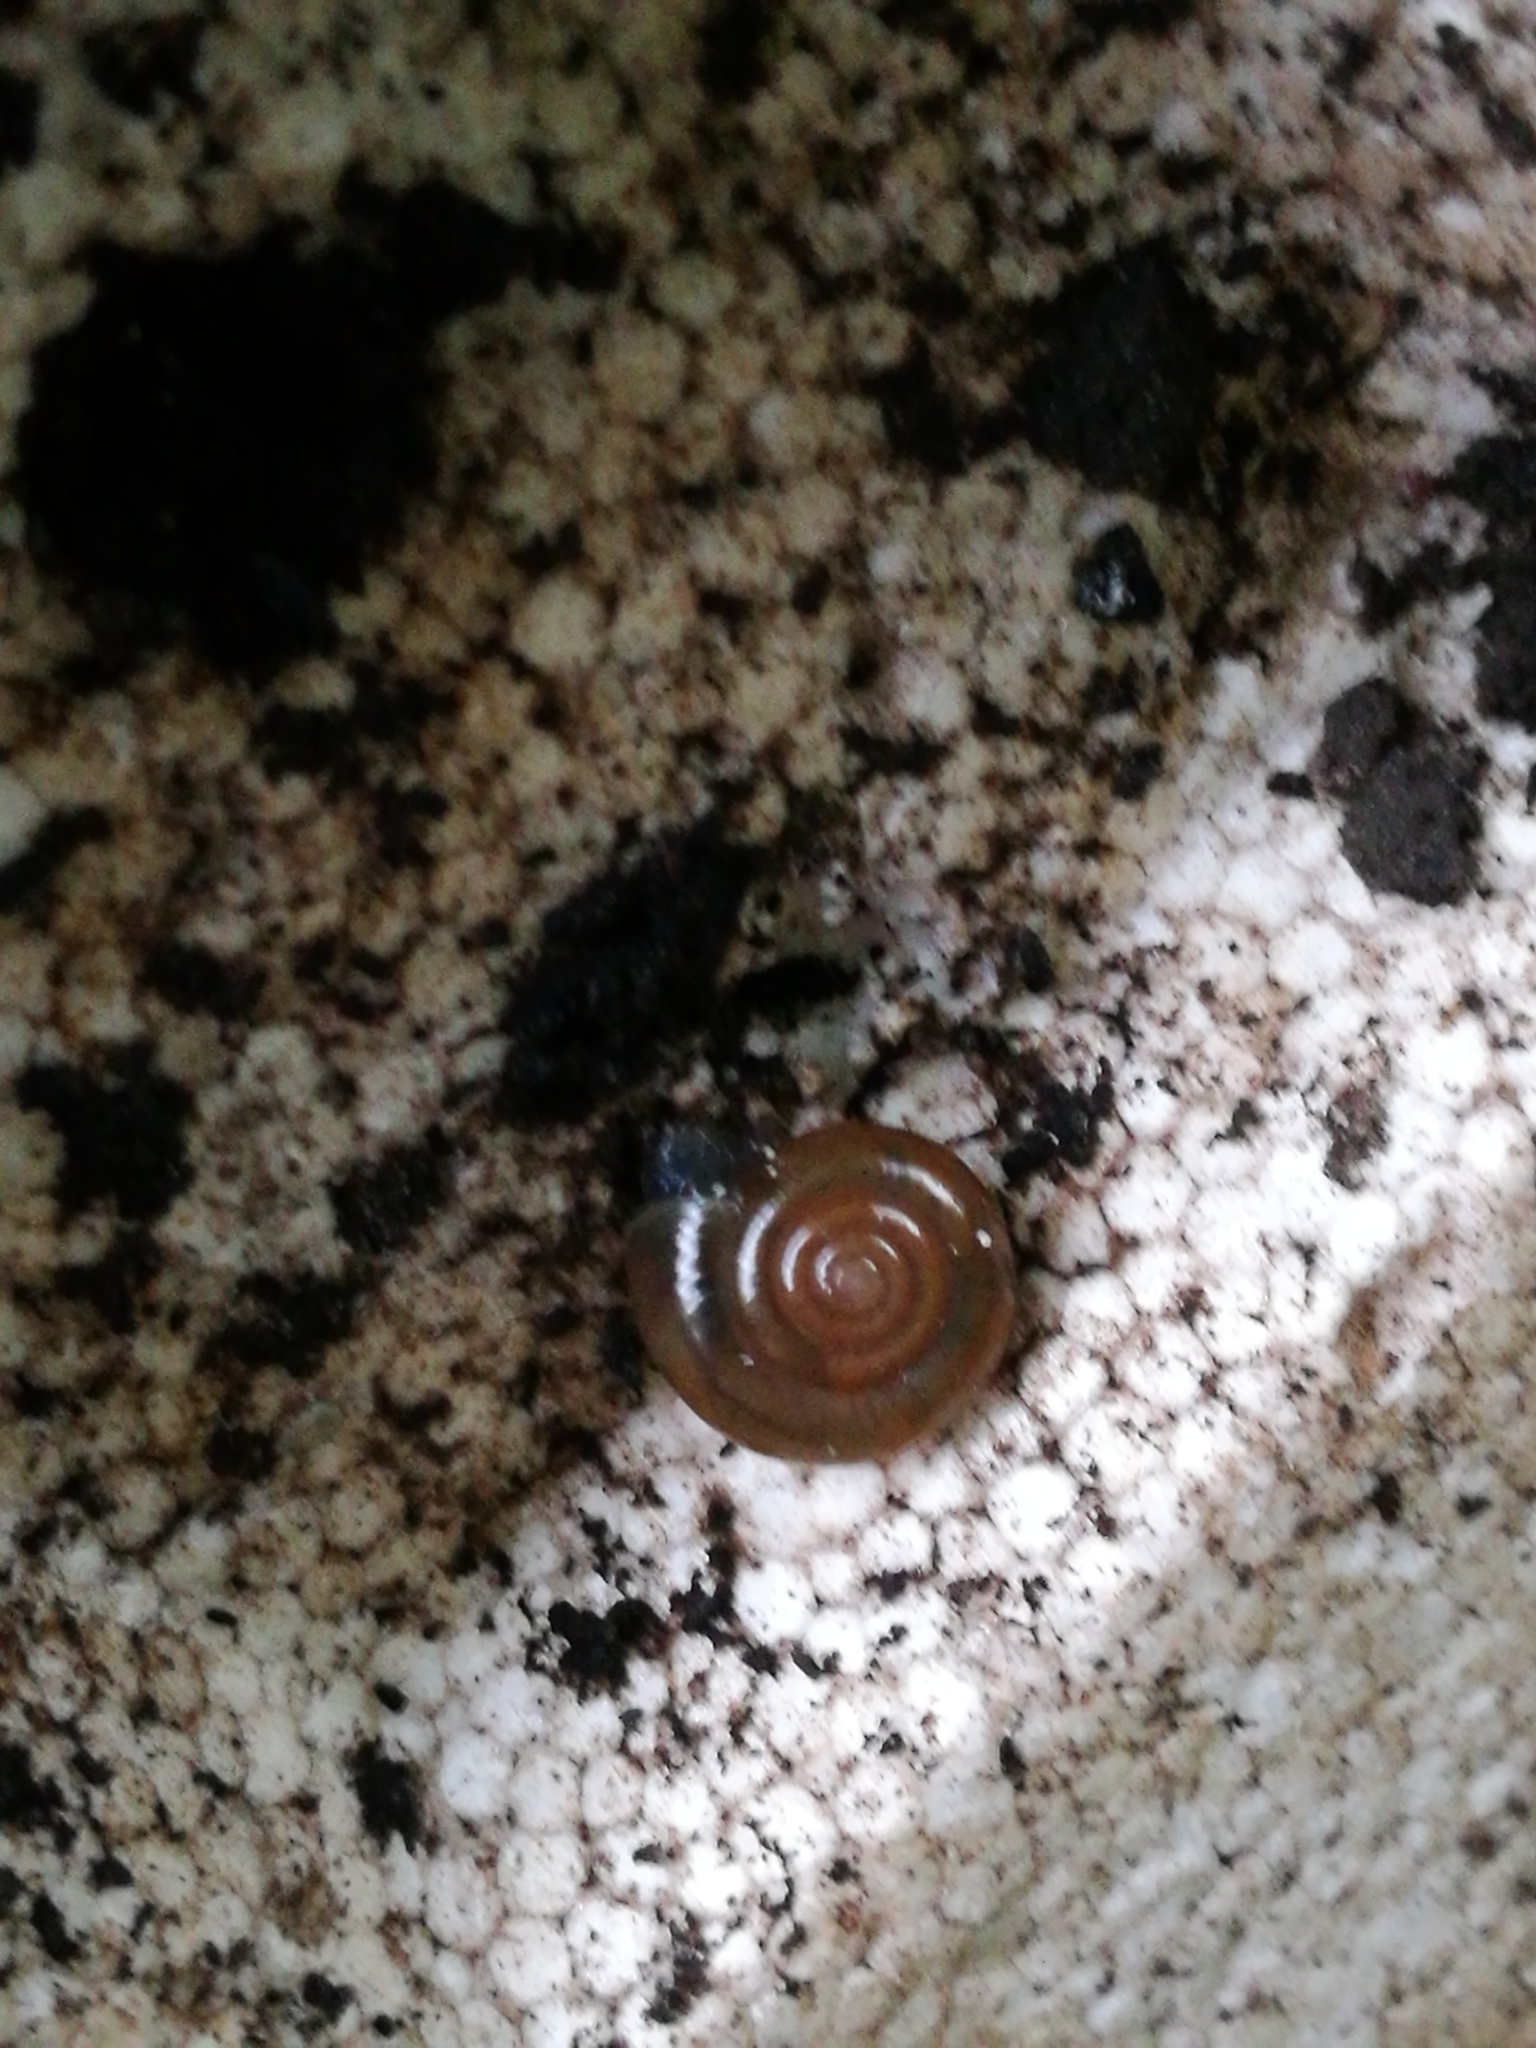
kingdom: Animalia
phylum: Mollusca
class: Gastropoda
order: Stylommatophora
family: Oxychilidae
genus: Oxychilus
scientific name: Oxychilus
